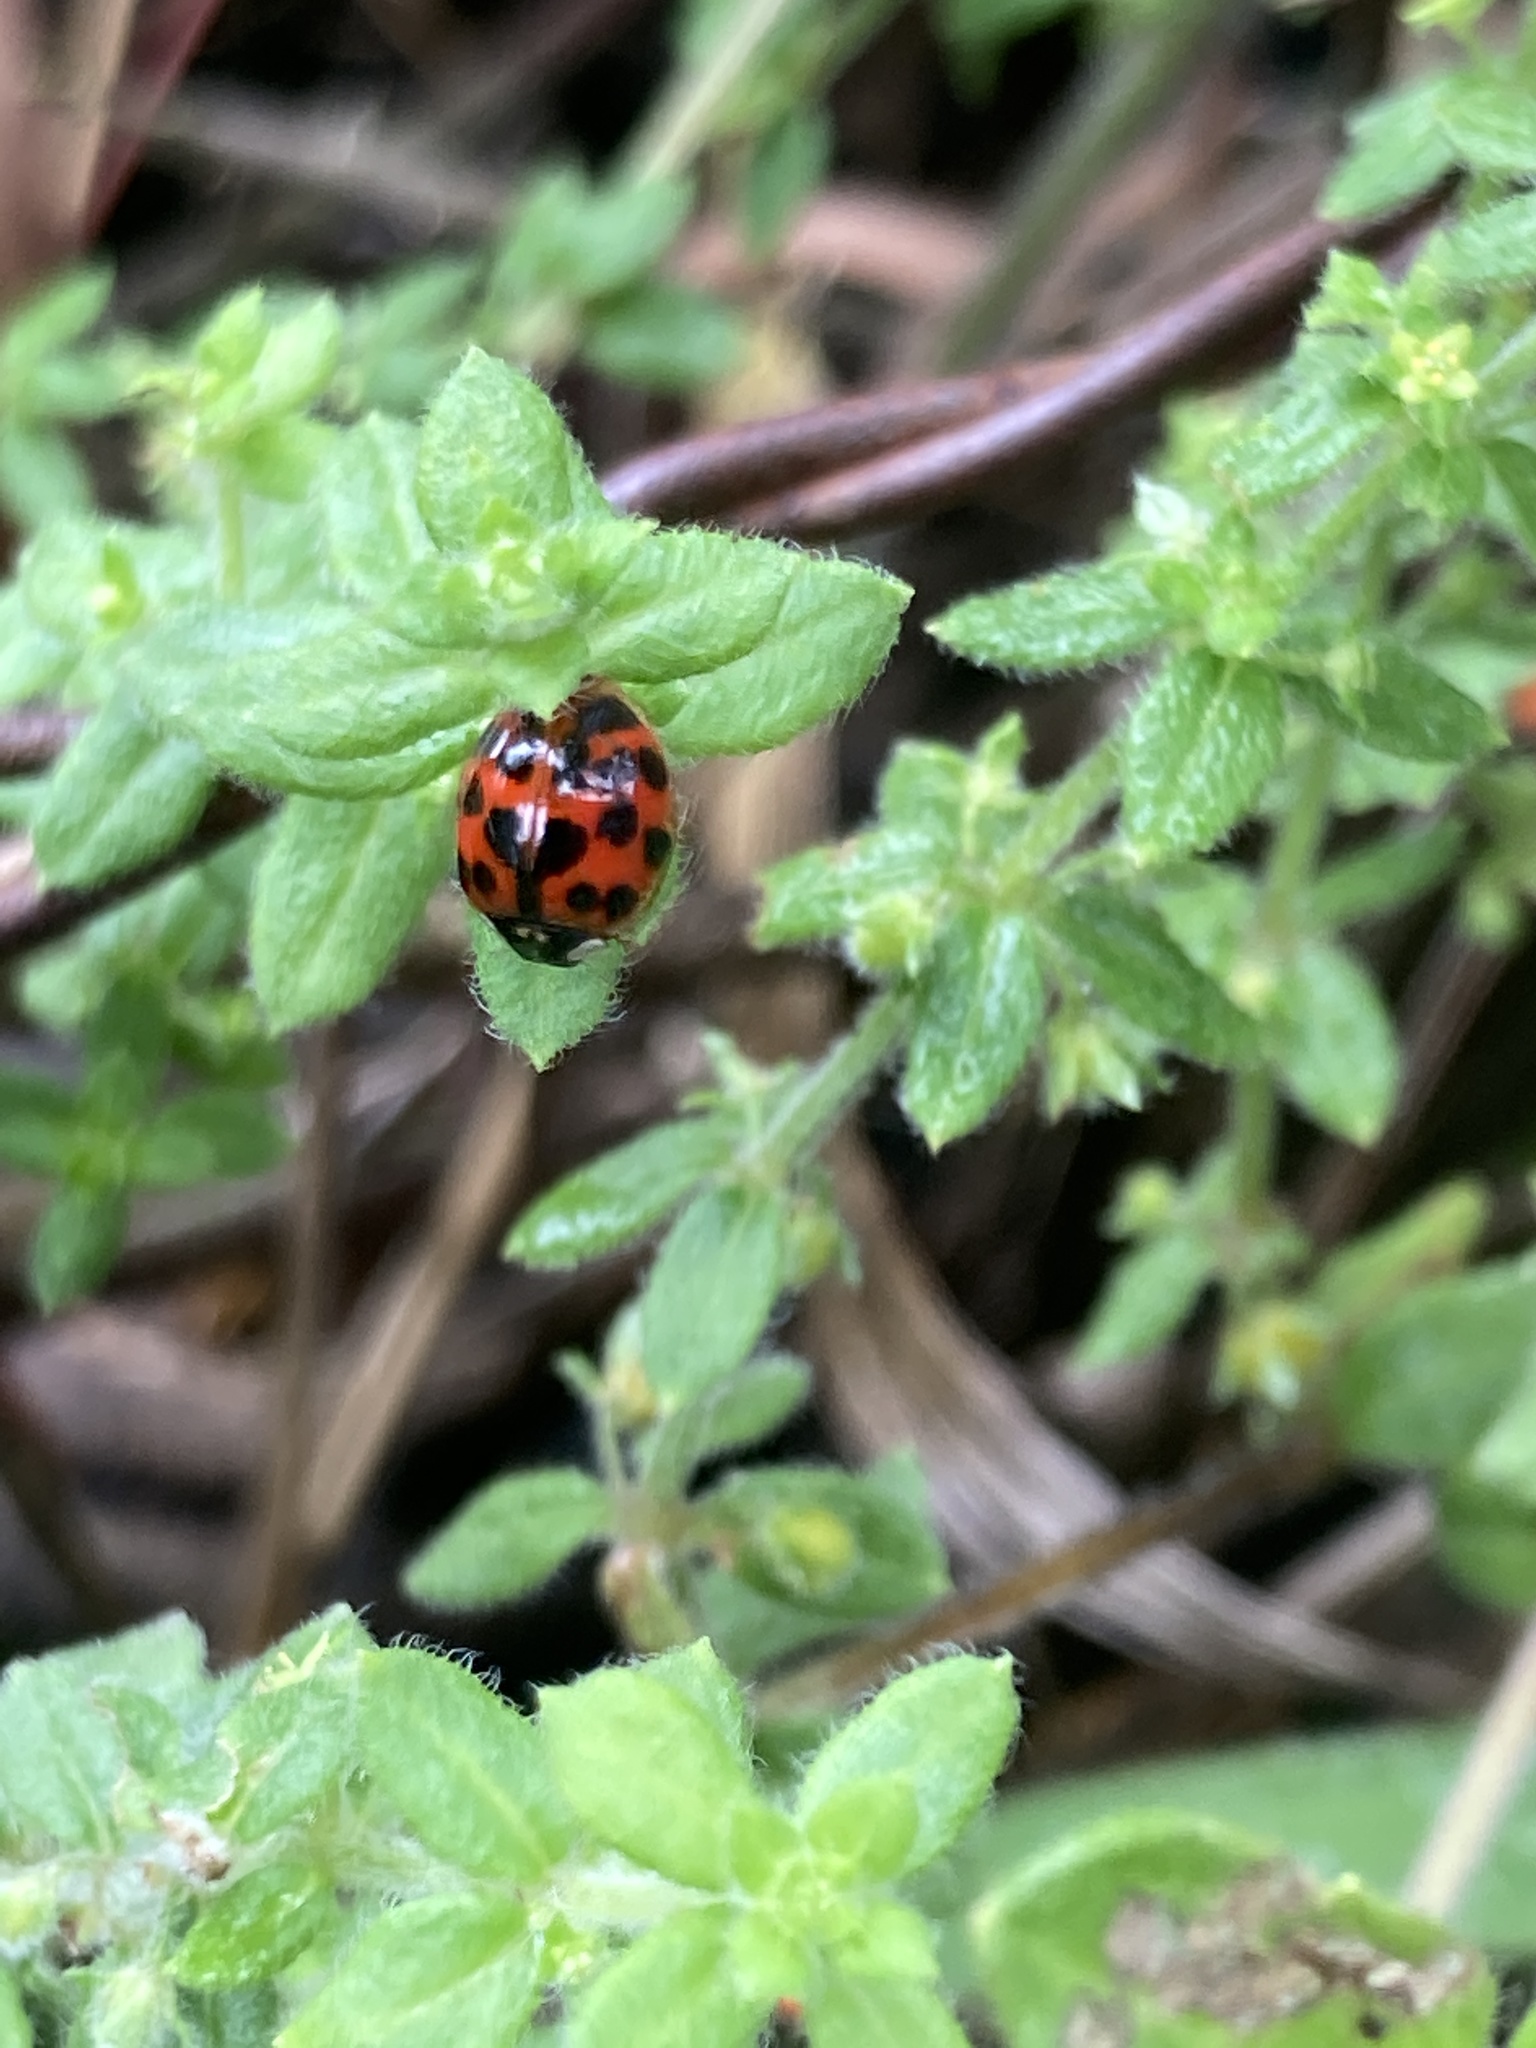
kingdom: Animalia
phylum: Arthropoda
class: Insecta
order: Coleoptera
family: Coccinellidae
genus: Harmonia
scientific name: Harmonia axyridis
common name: Harlequin ladybird
